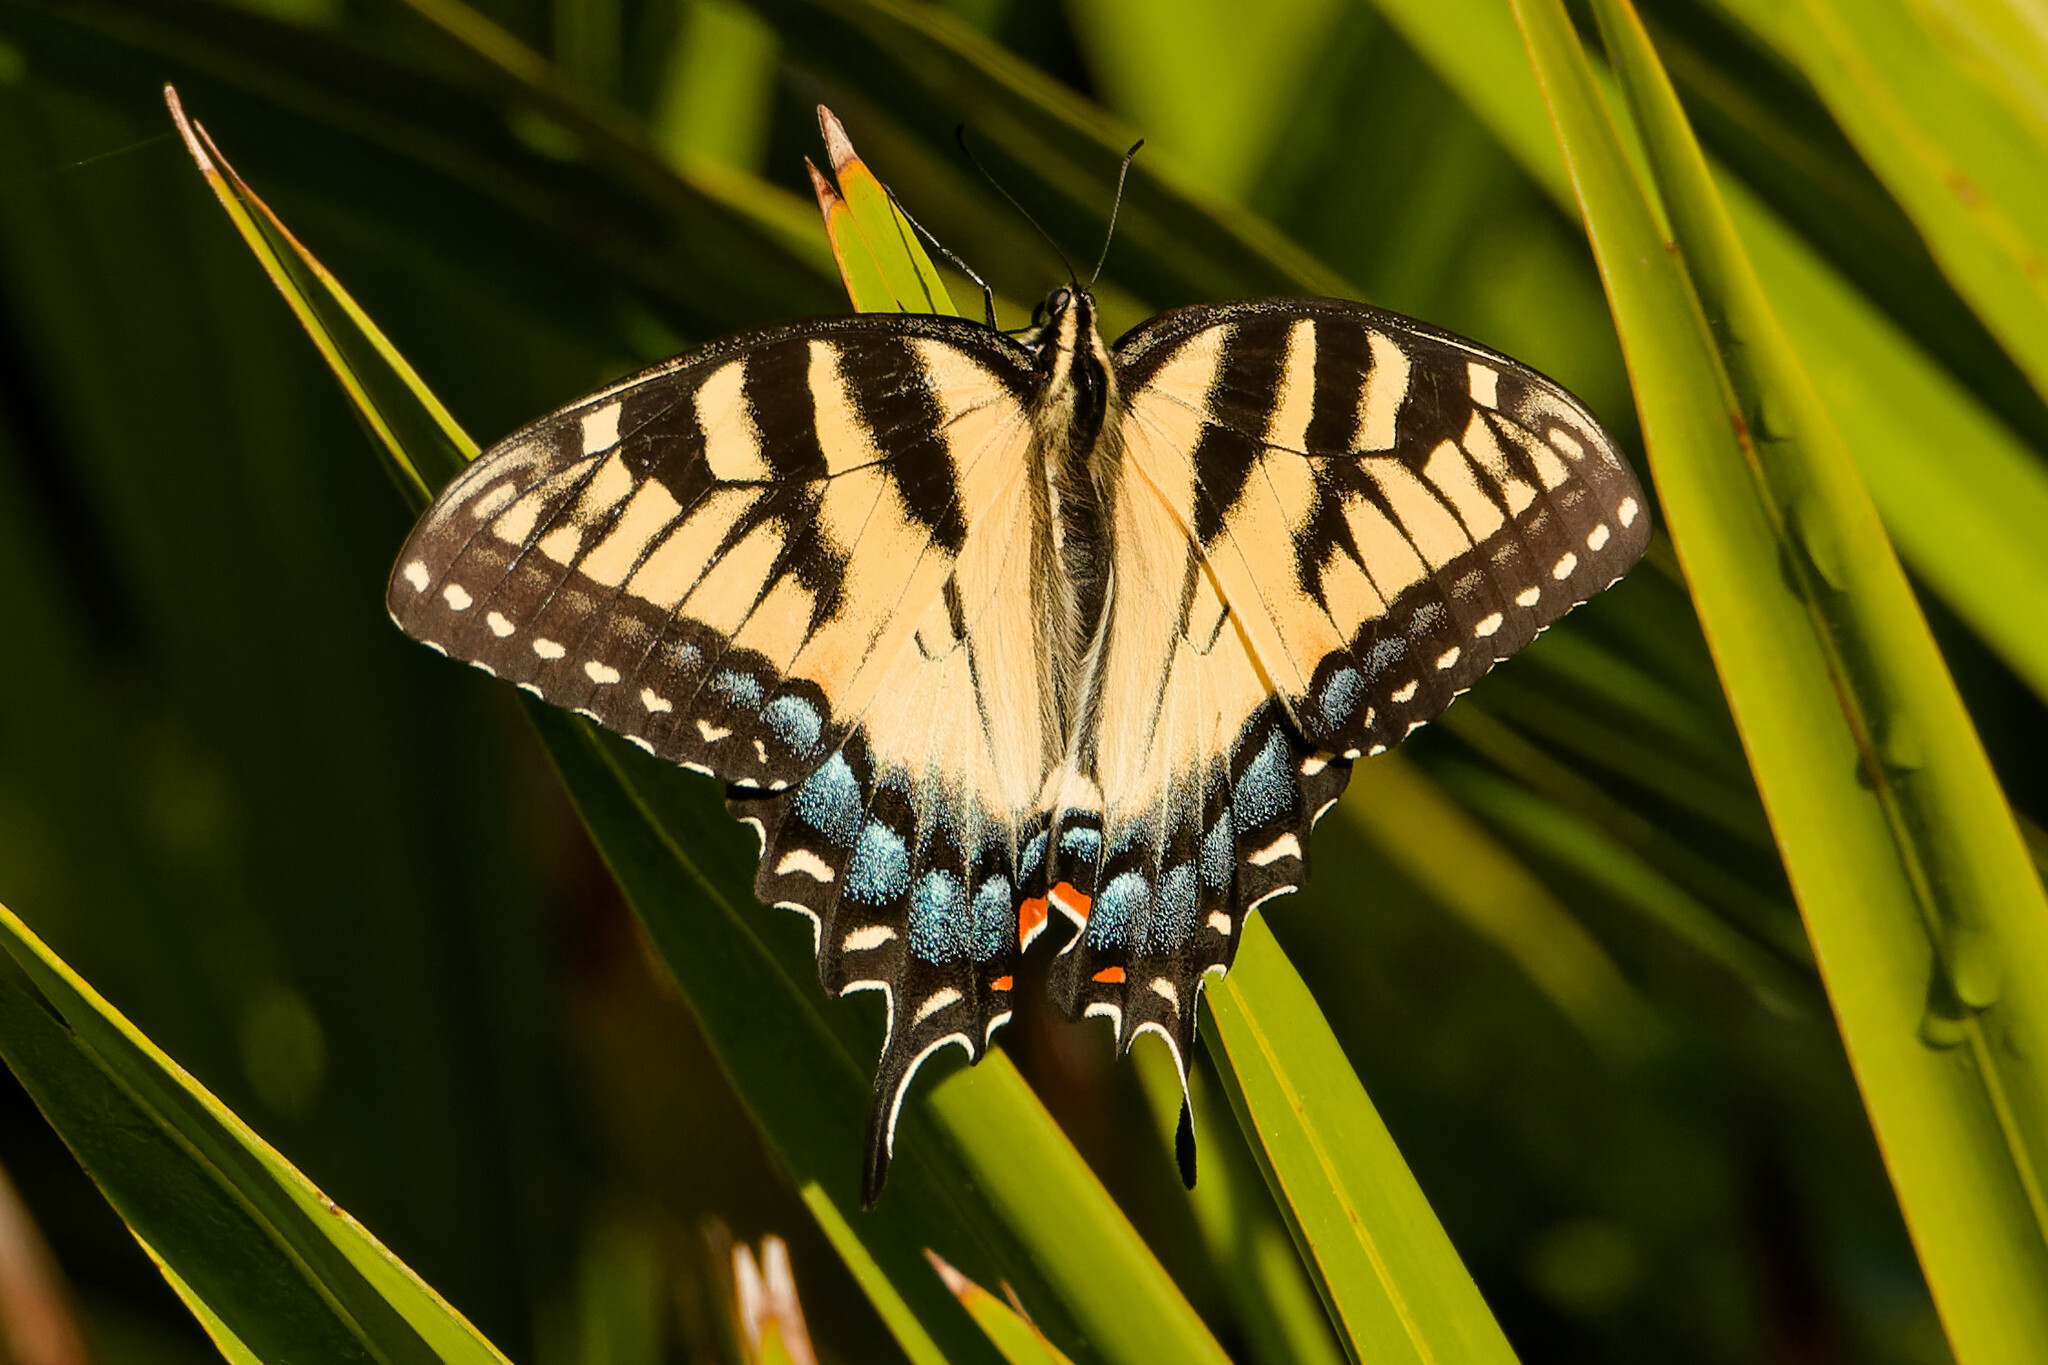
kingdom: Animalia
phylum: Arthropoda
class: Insecta
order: Lepidoptera
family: Papilionidae
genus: Papilio
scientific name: Papilio glaucus
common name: Tiger swallowtail
